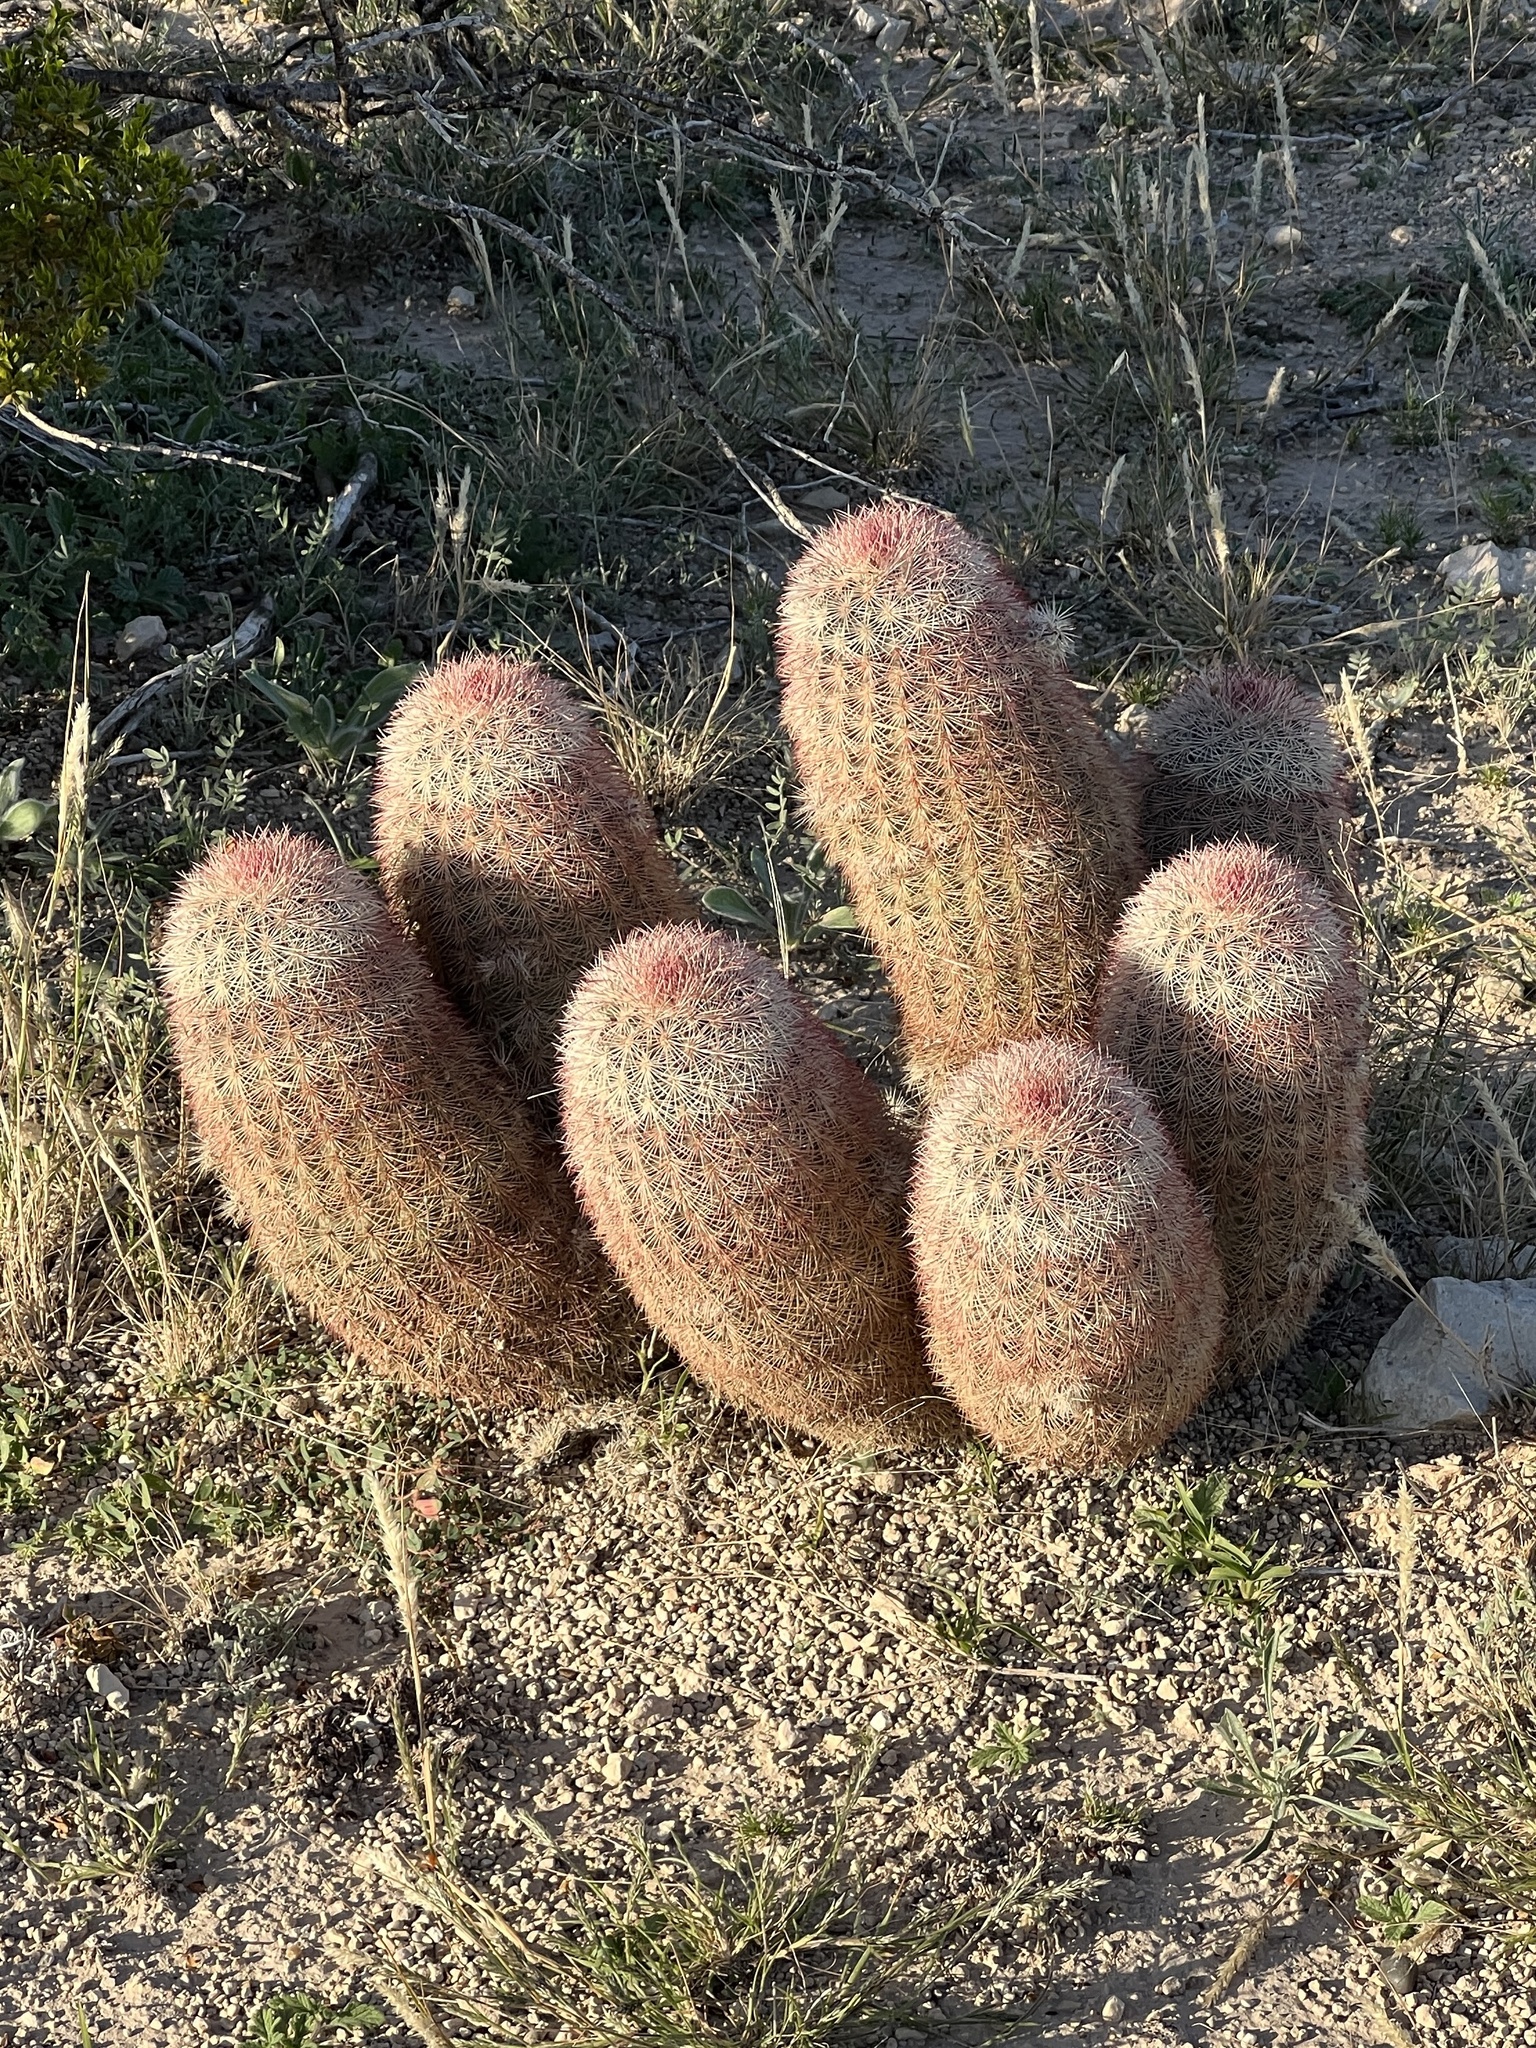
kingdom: Plantae
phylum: Tracheophyta
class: Magnoliopsida
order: Caryophyllales
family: Cactaceae
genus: Echinocereus
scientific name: Echinocereus dasyacanthus
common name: Spiny hedgehog cactus
